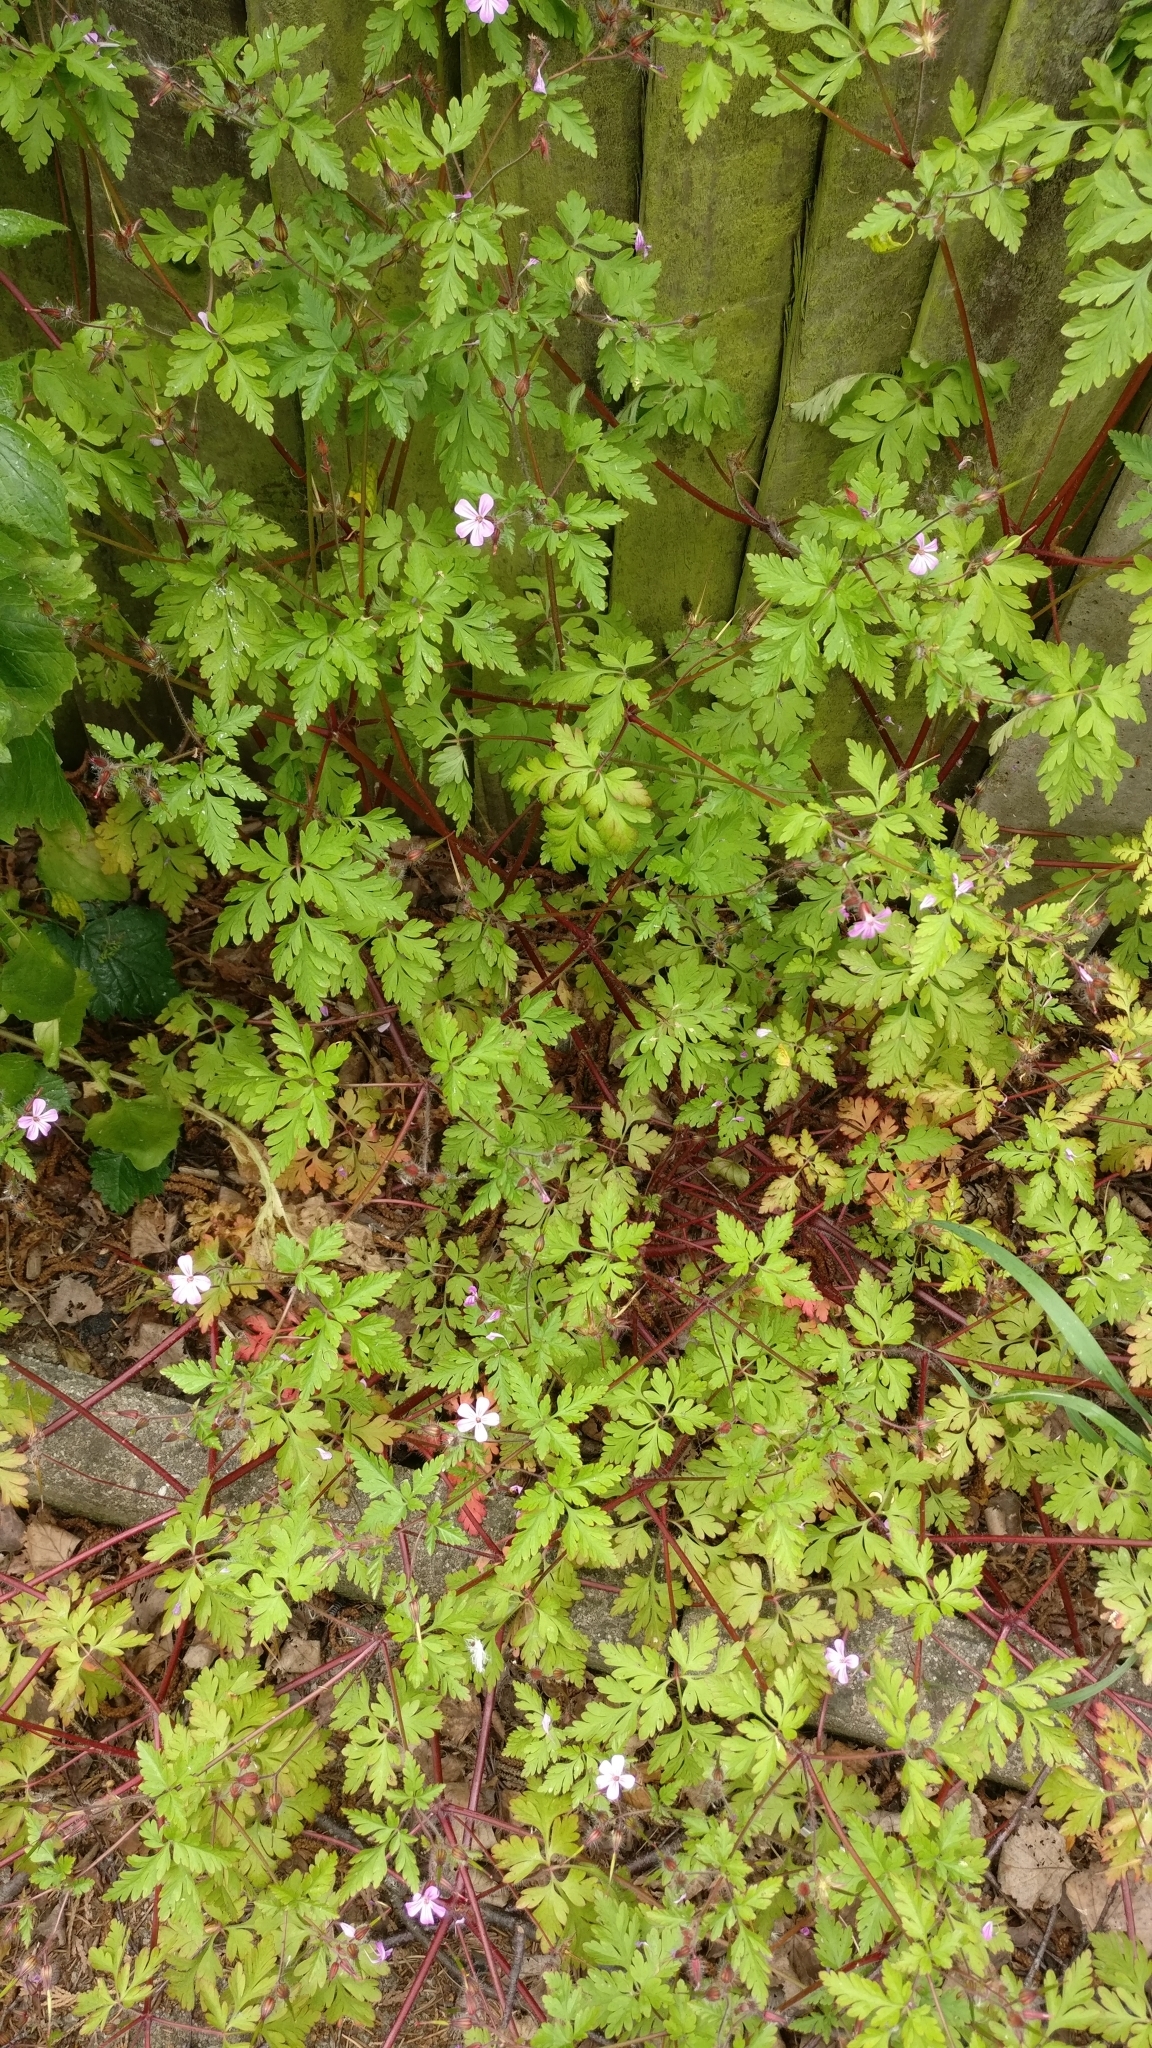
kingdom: Plantae
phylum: Tracheophyta
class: Magnoliopsida
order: Geraniales
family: Geraniaceae
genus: Geranium
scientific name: Geranium robertianum
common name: Herb-robert
